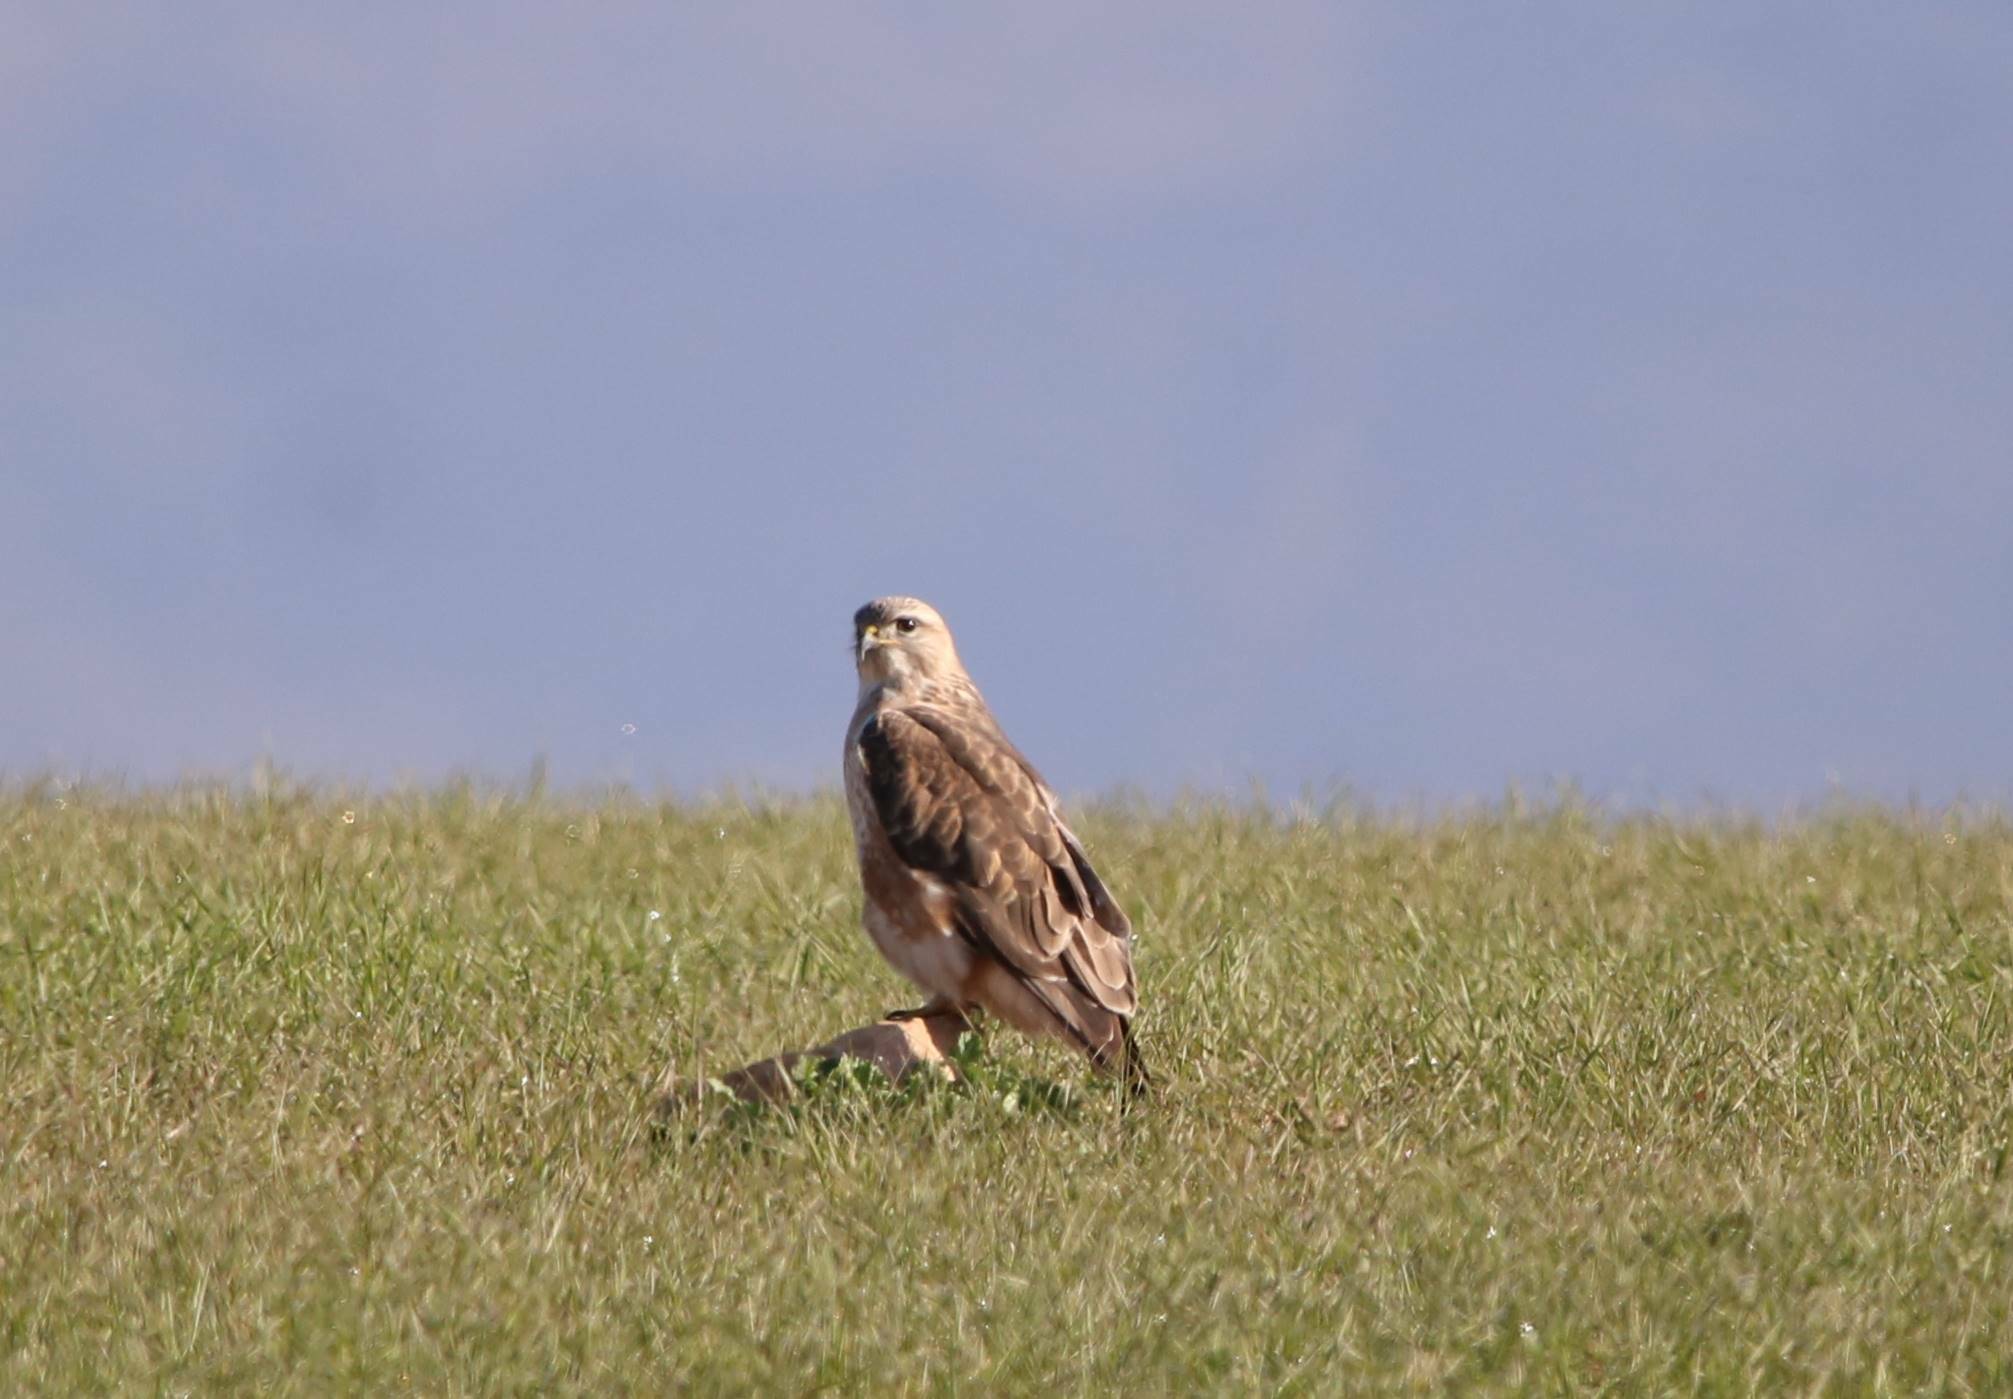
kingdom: Animalia
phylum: Chordata
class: Aves
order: Accipitriformes
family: Accipitridae
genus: Buteo
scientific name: Buteo rufinus
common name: Long-legged buzzard
